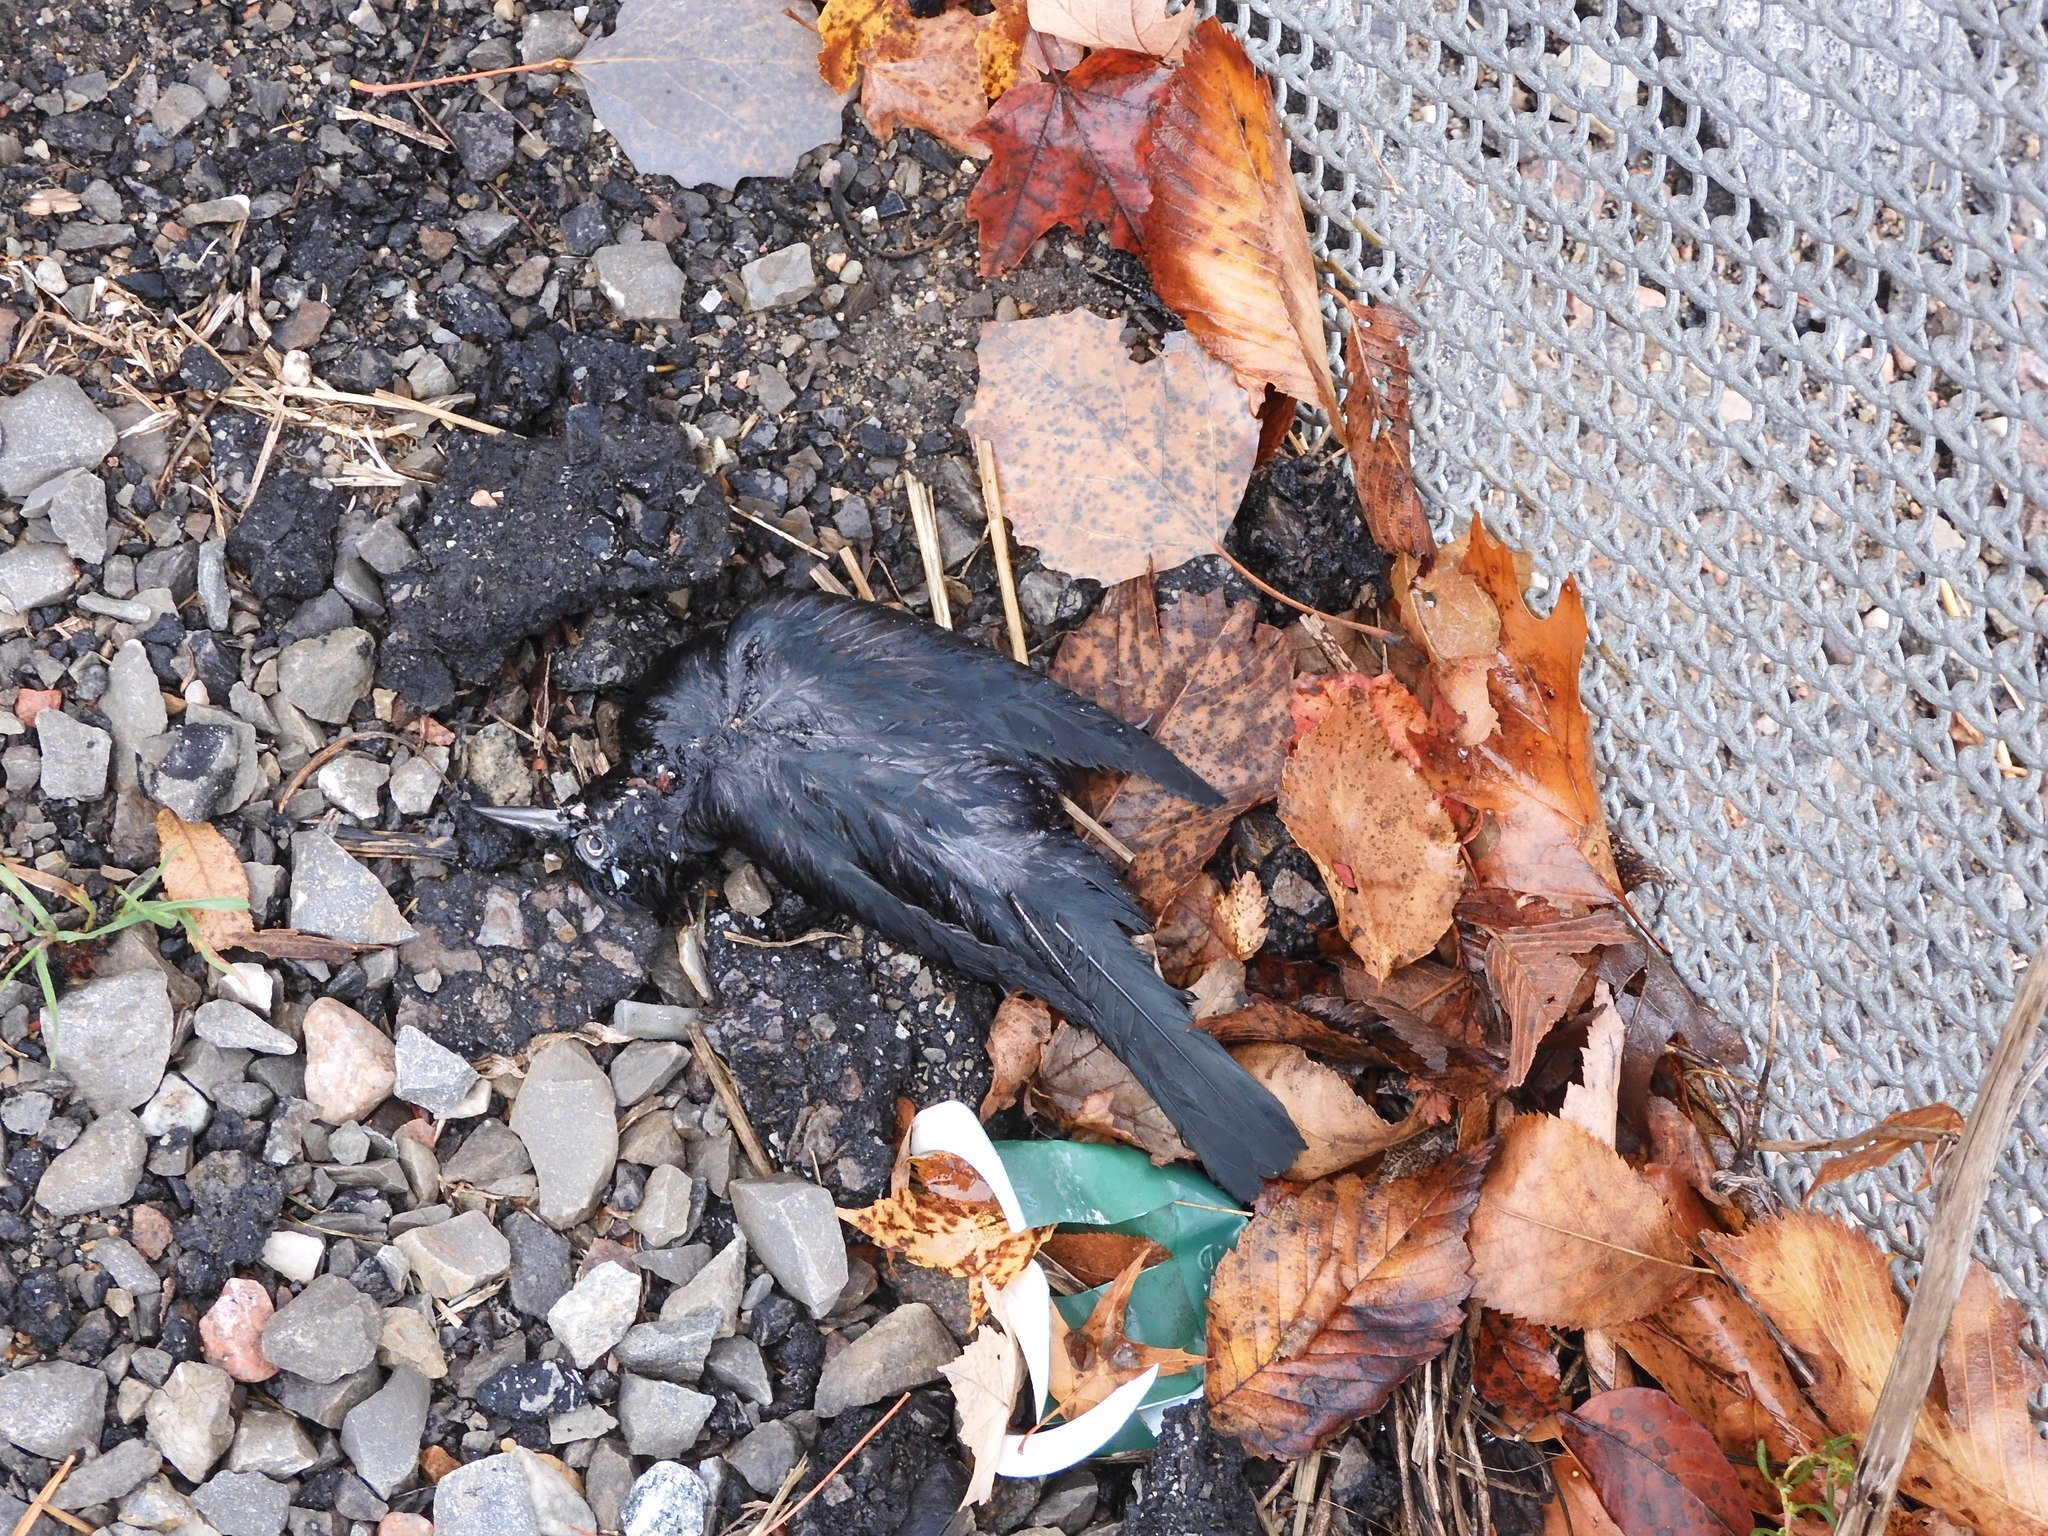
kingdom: Animalia
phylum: Chordata
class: Aves
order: Passeriformes
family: Icteridae
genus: Quiscalus
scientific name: Quiscalus quiscula
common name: Common grackle
